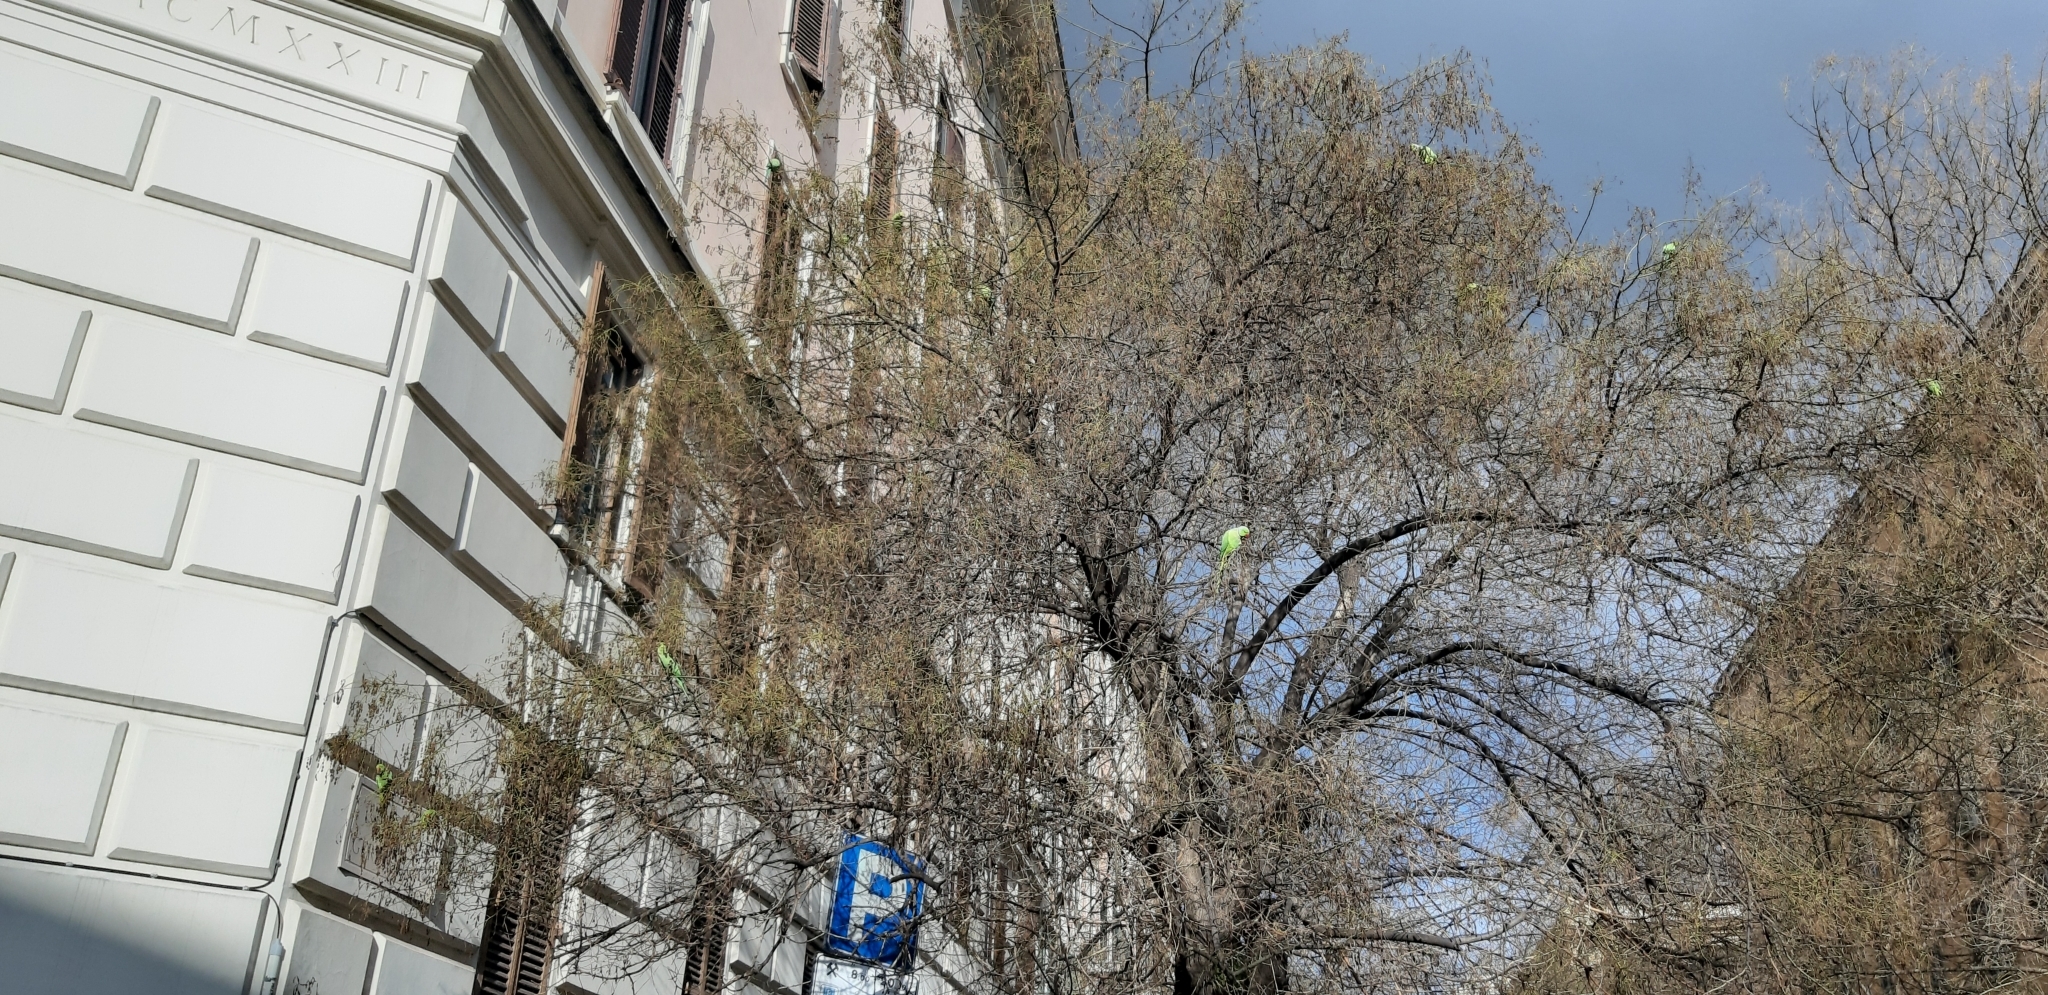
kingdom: Animalia
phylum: Chordata
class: Aves
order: Psittaciformes
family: Psittacidae
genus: Psittacula
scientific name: Psittacula krameri
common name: Rose-ringed parakeet
